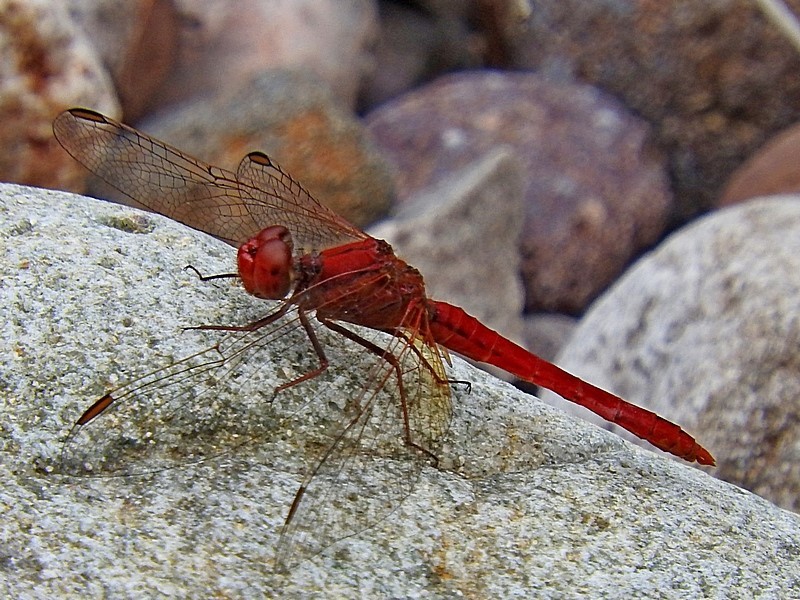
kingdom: Animalia
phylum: Arthropoda
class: Insecta
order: Odonata
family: Libellulidae
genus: Diplacodes
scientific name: Diplacodes haematodes
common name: Scarlet percher
